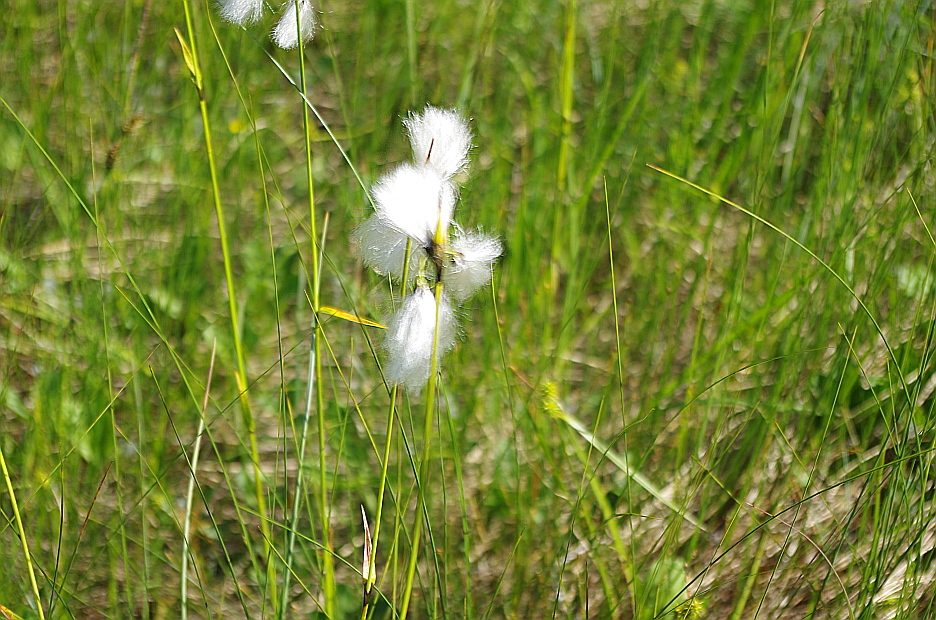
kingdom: Plantae
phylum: Tracheophyta
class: Liliopsida
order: Poales
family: Cyperaceae
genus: Eriophorum
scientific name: Eriophorum latifolium
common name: Broad-leaved cottongrass
